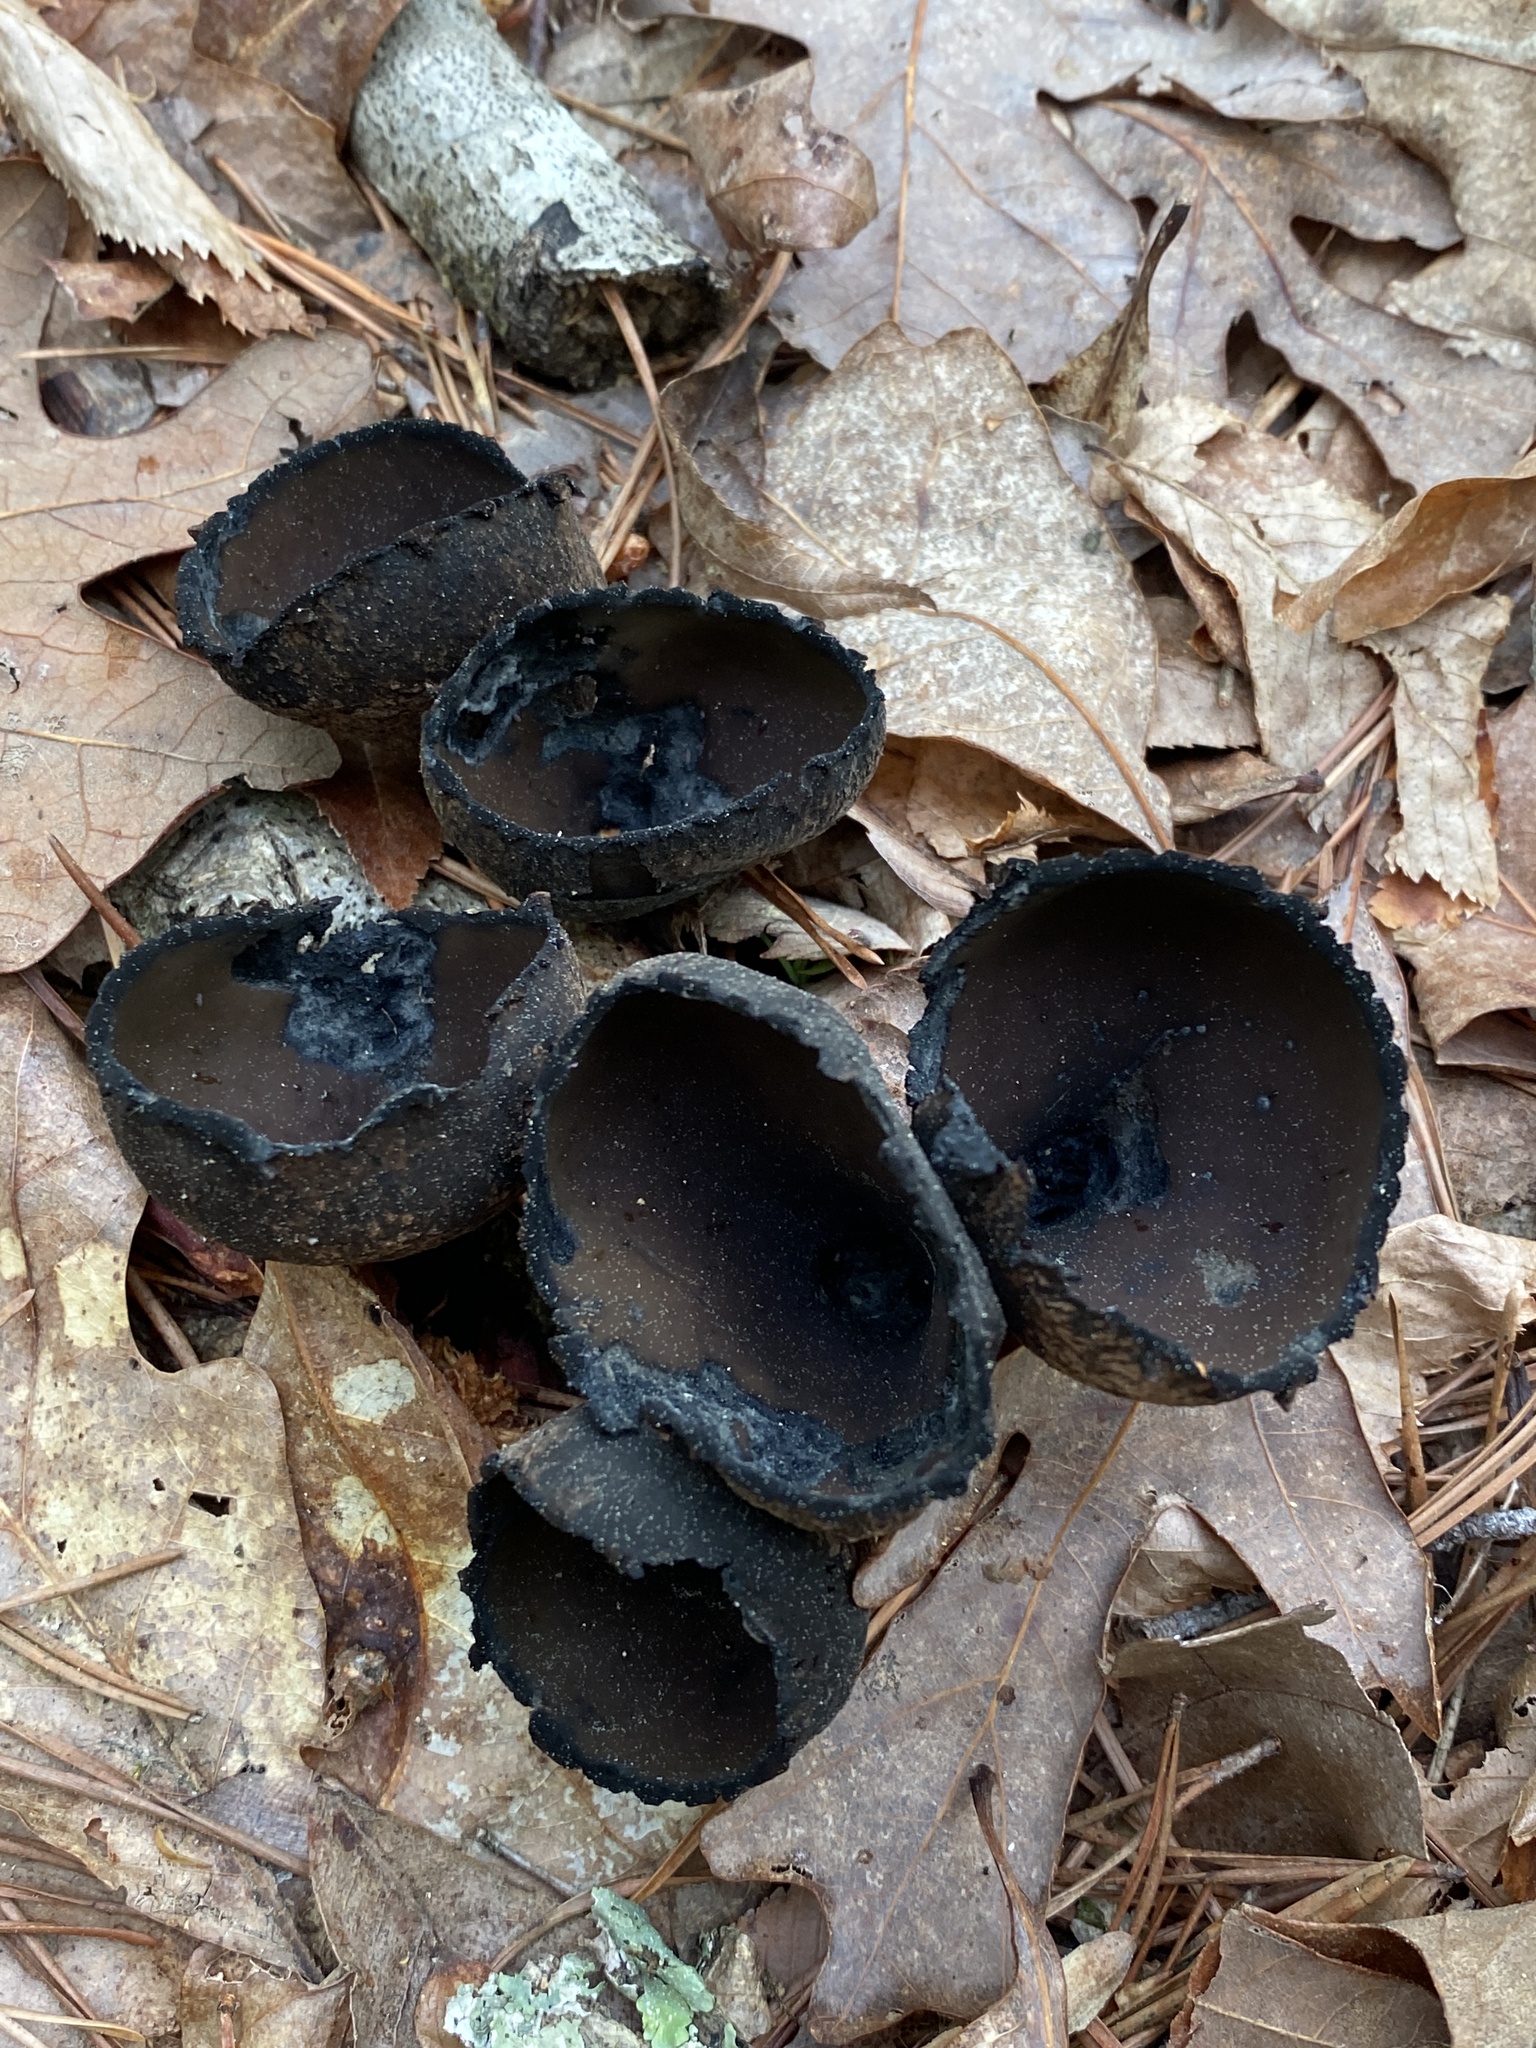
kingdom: Fungi
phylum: Ascomycota
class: Pezizomycetes
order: Pezizales
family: Sarcosomataceae
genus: Urnula
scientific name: Urnula craterium
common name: Devil's urn
